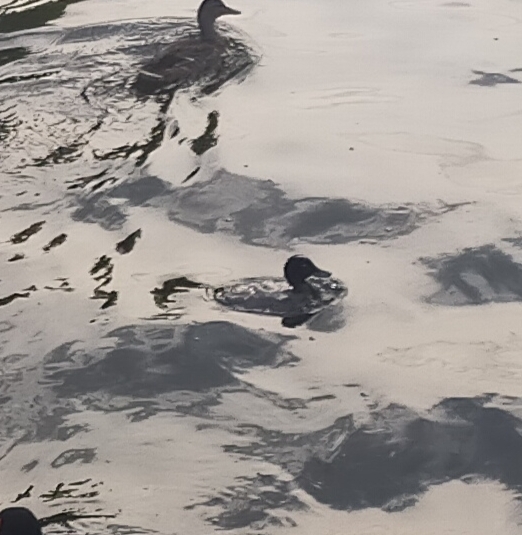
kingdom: Animalia
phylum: Chordata
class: Aves
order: Anseriformes
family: Anatidae
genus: Aythya
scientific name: Aythya
